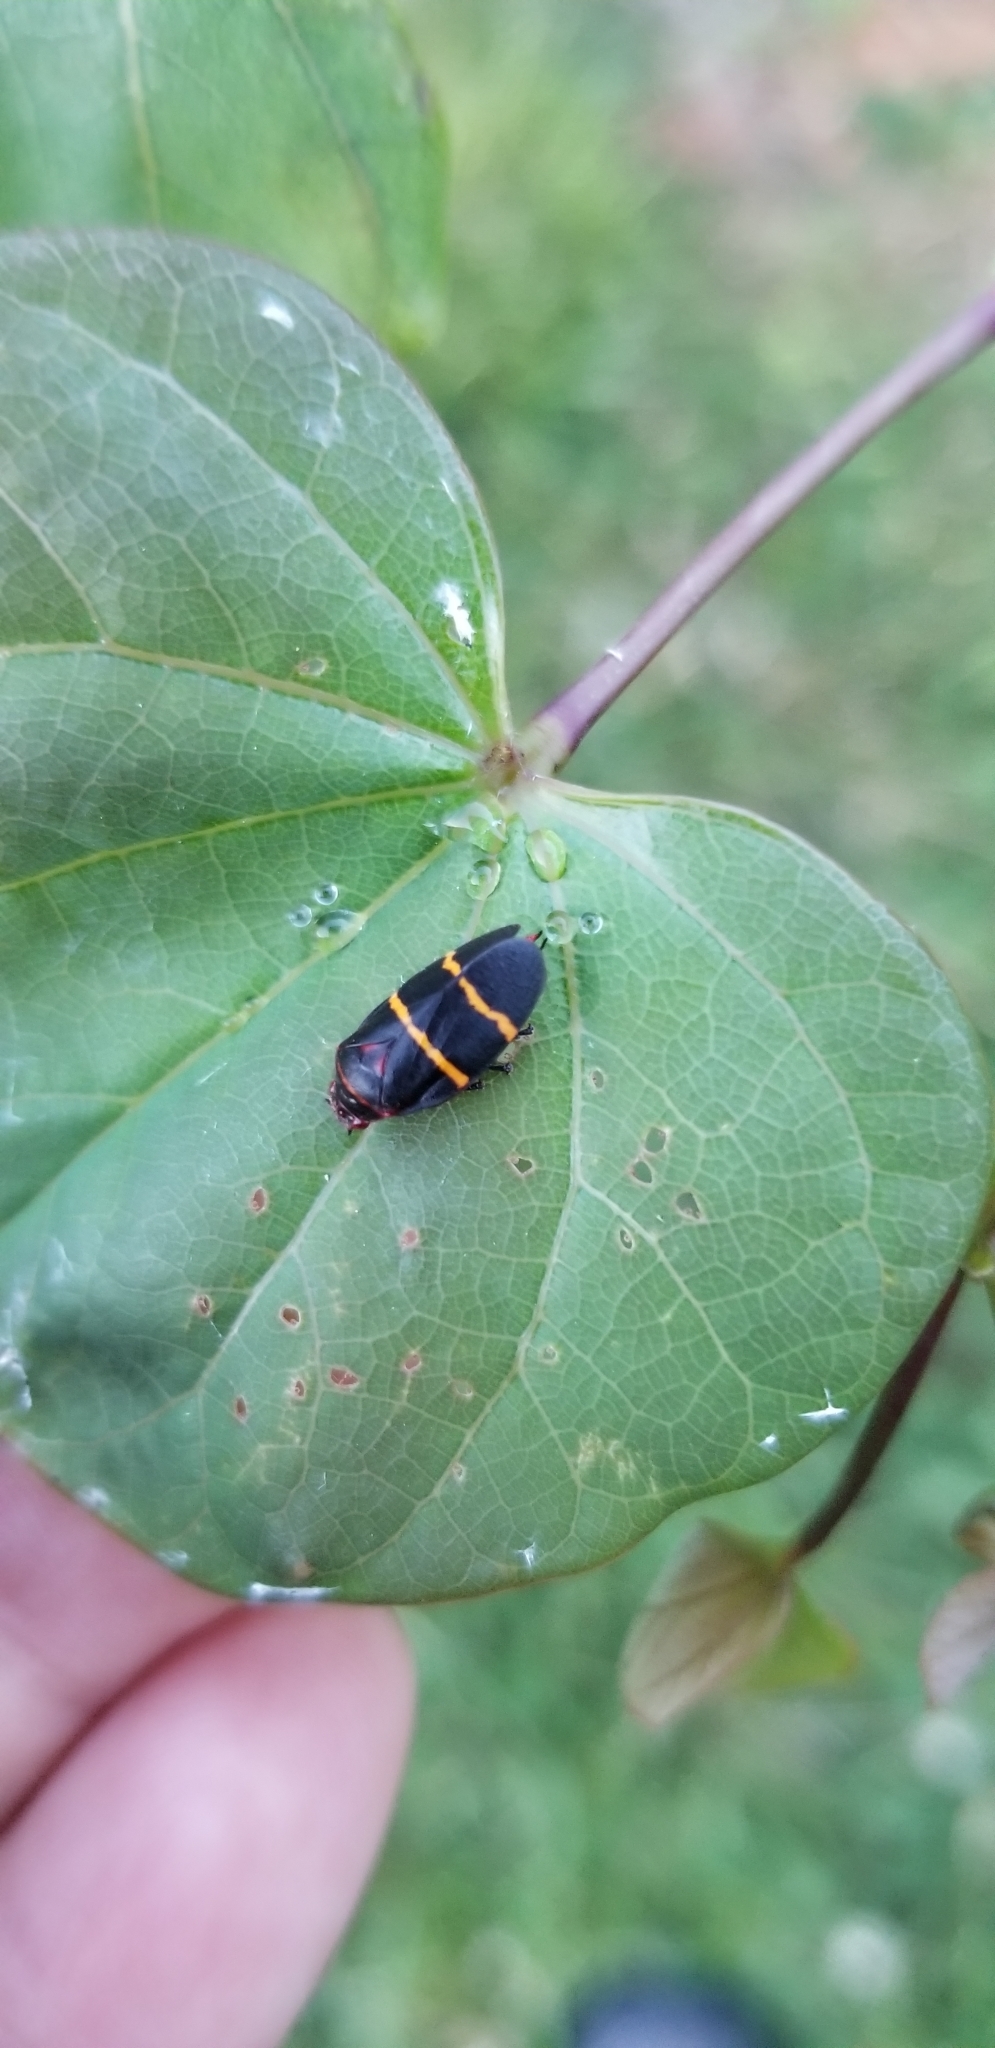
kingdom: Animalia
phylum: Arthropoda
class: Insecta
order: Hemiptera
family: Cercopidae
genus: Prosapia
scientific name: Prosapia bicincta
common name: Twolined spittlebug
